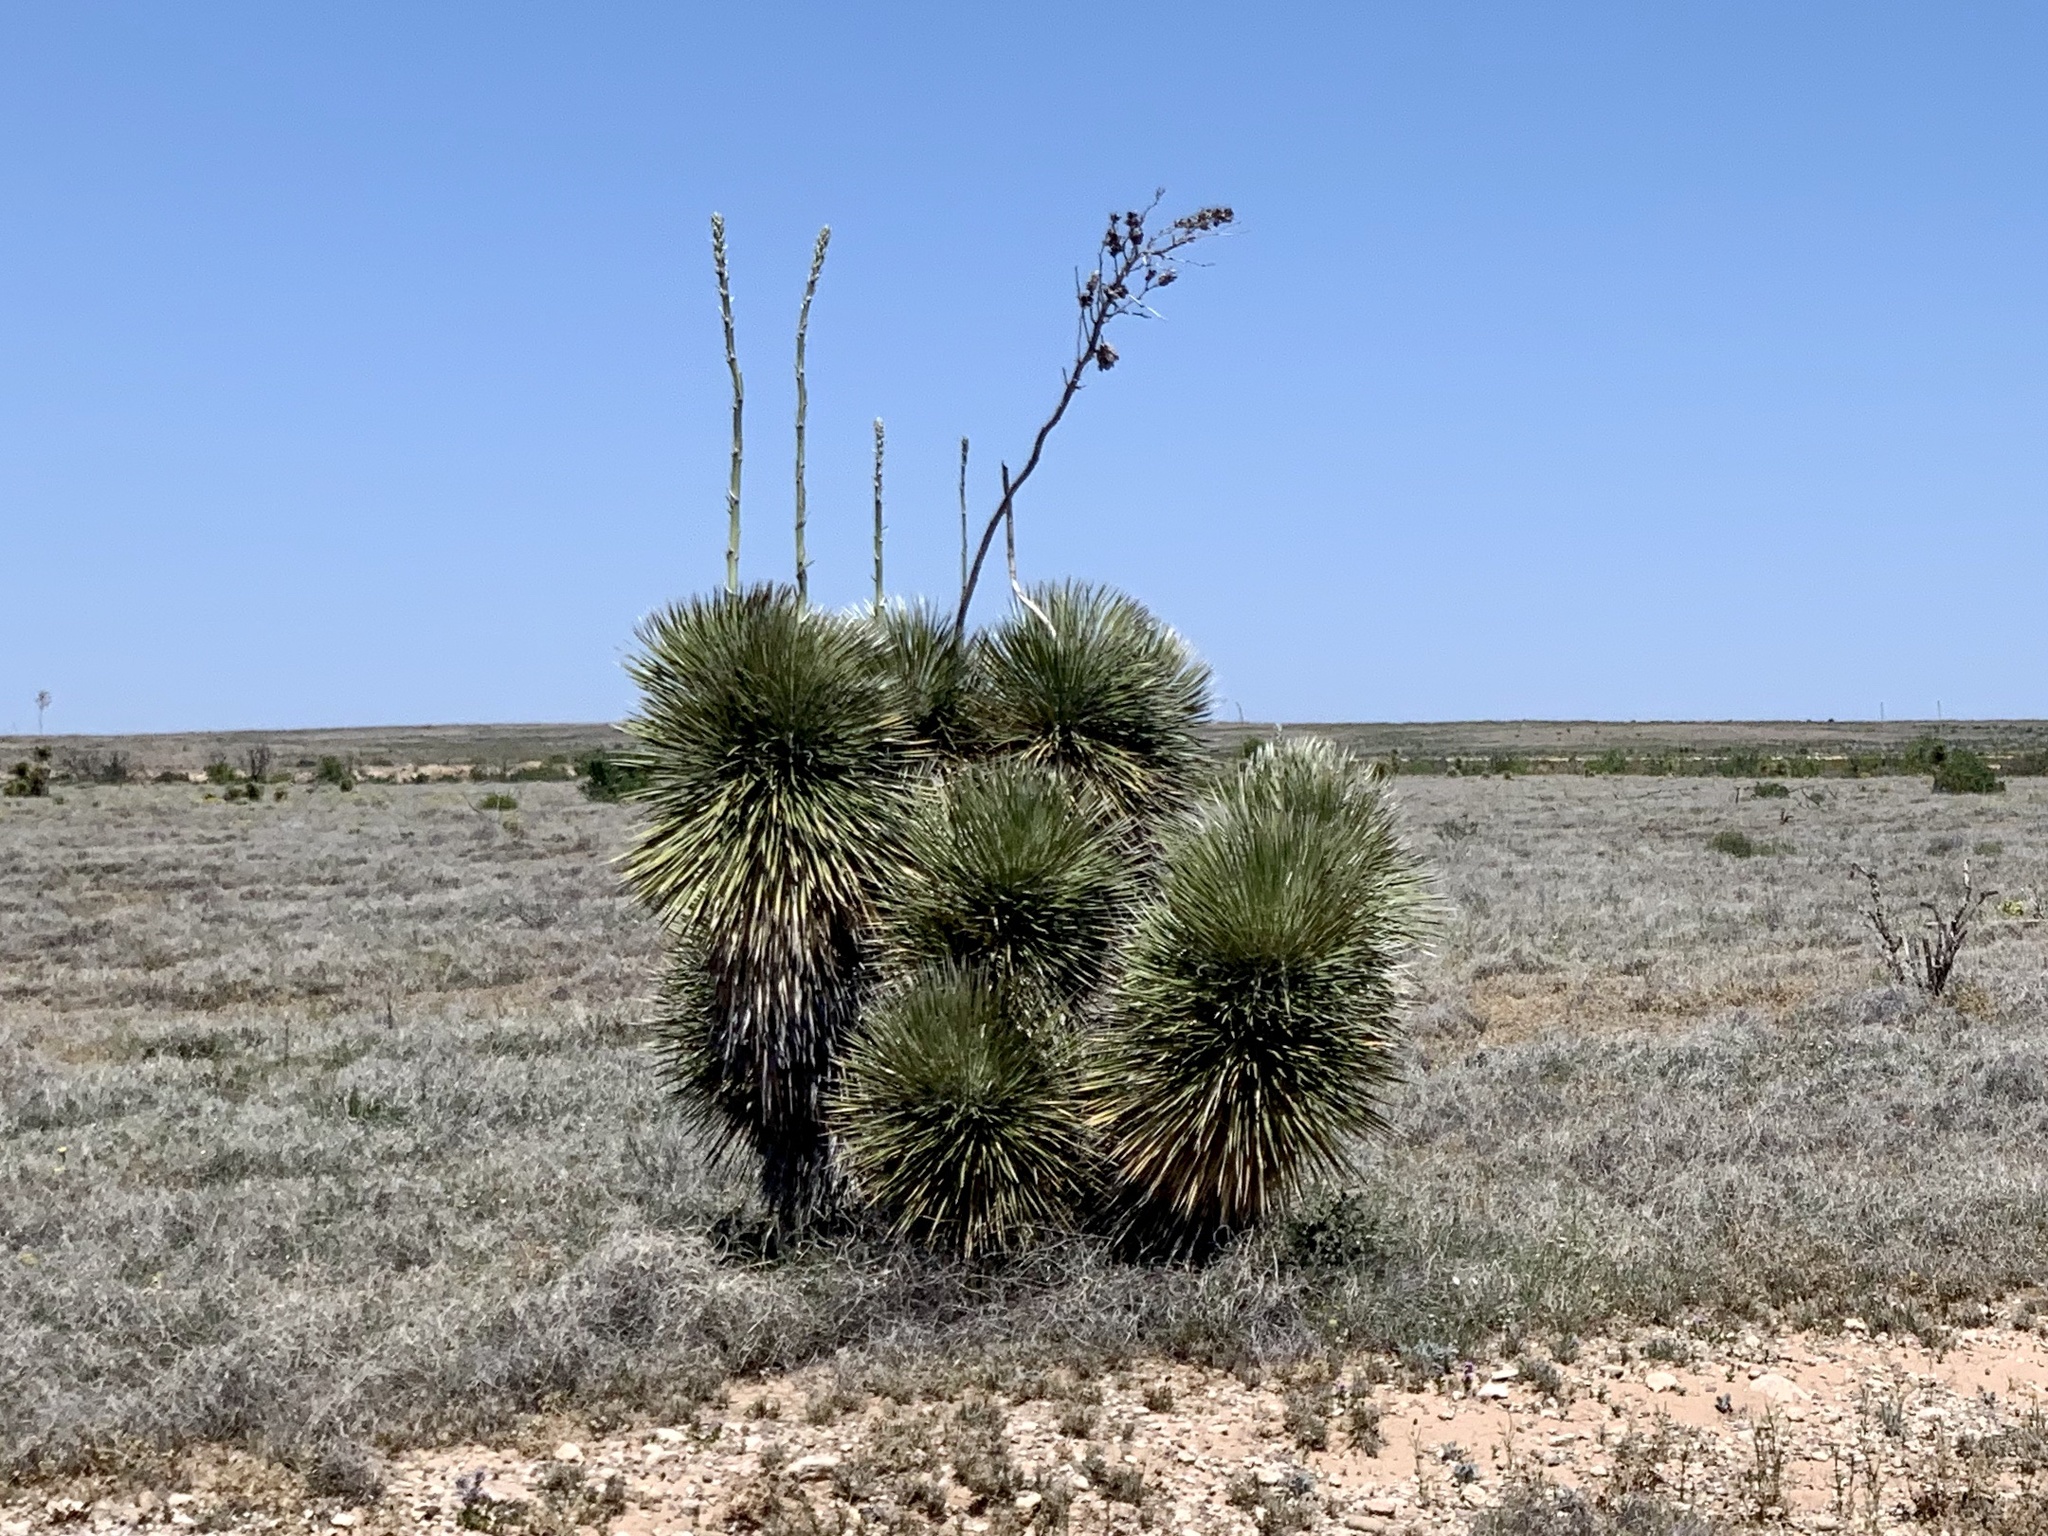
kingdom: Plantae
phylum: Tracheophyta
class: Liliopsida
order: Asparagales
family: Asparagaceae
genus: Yucca
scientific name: Yucca elata
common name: Palmella
